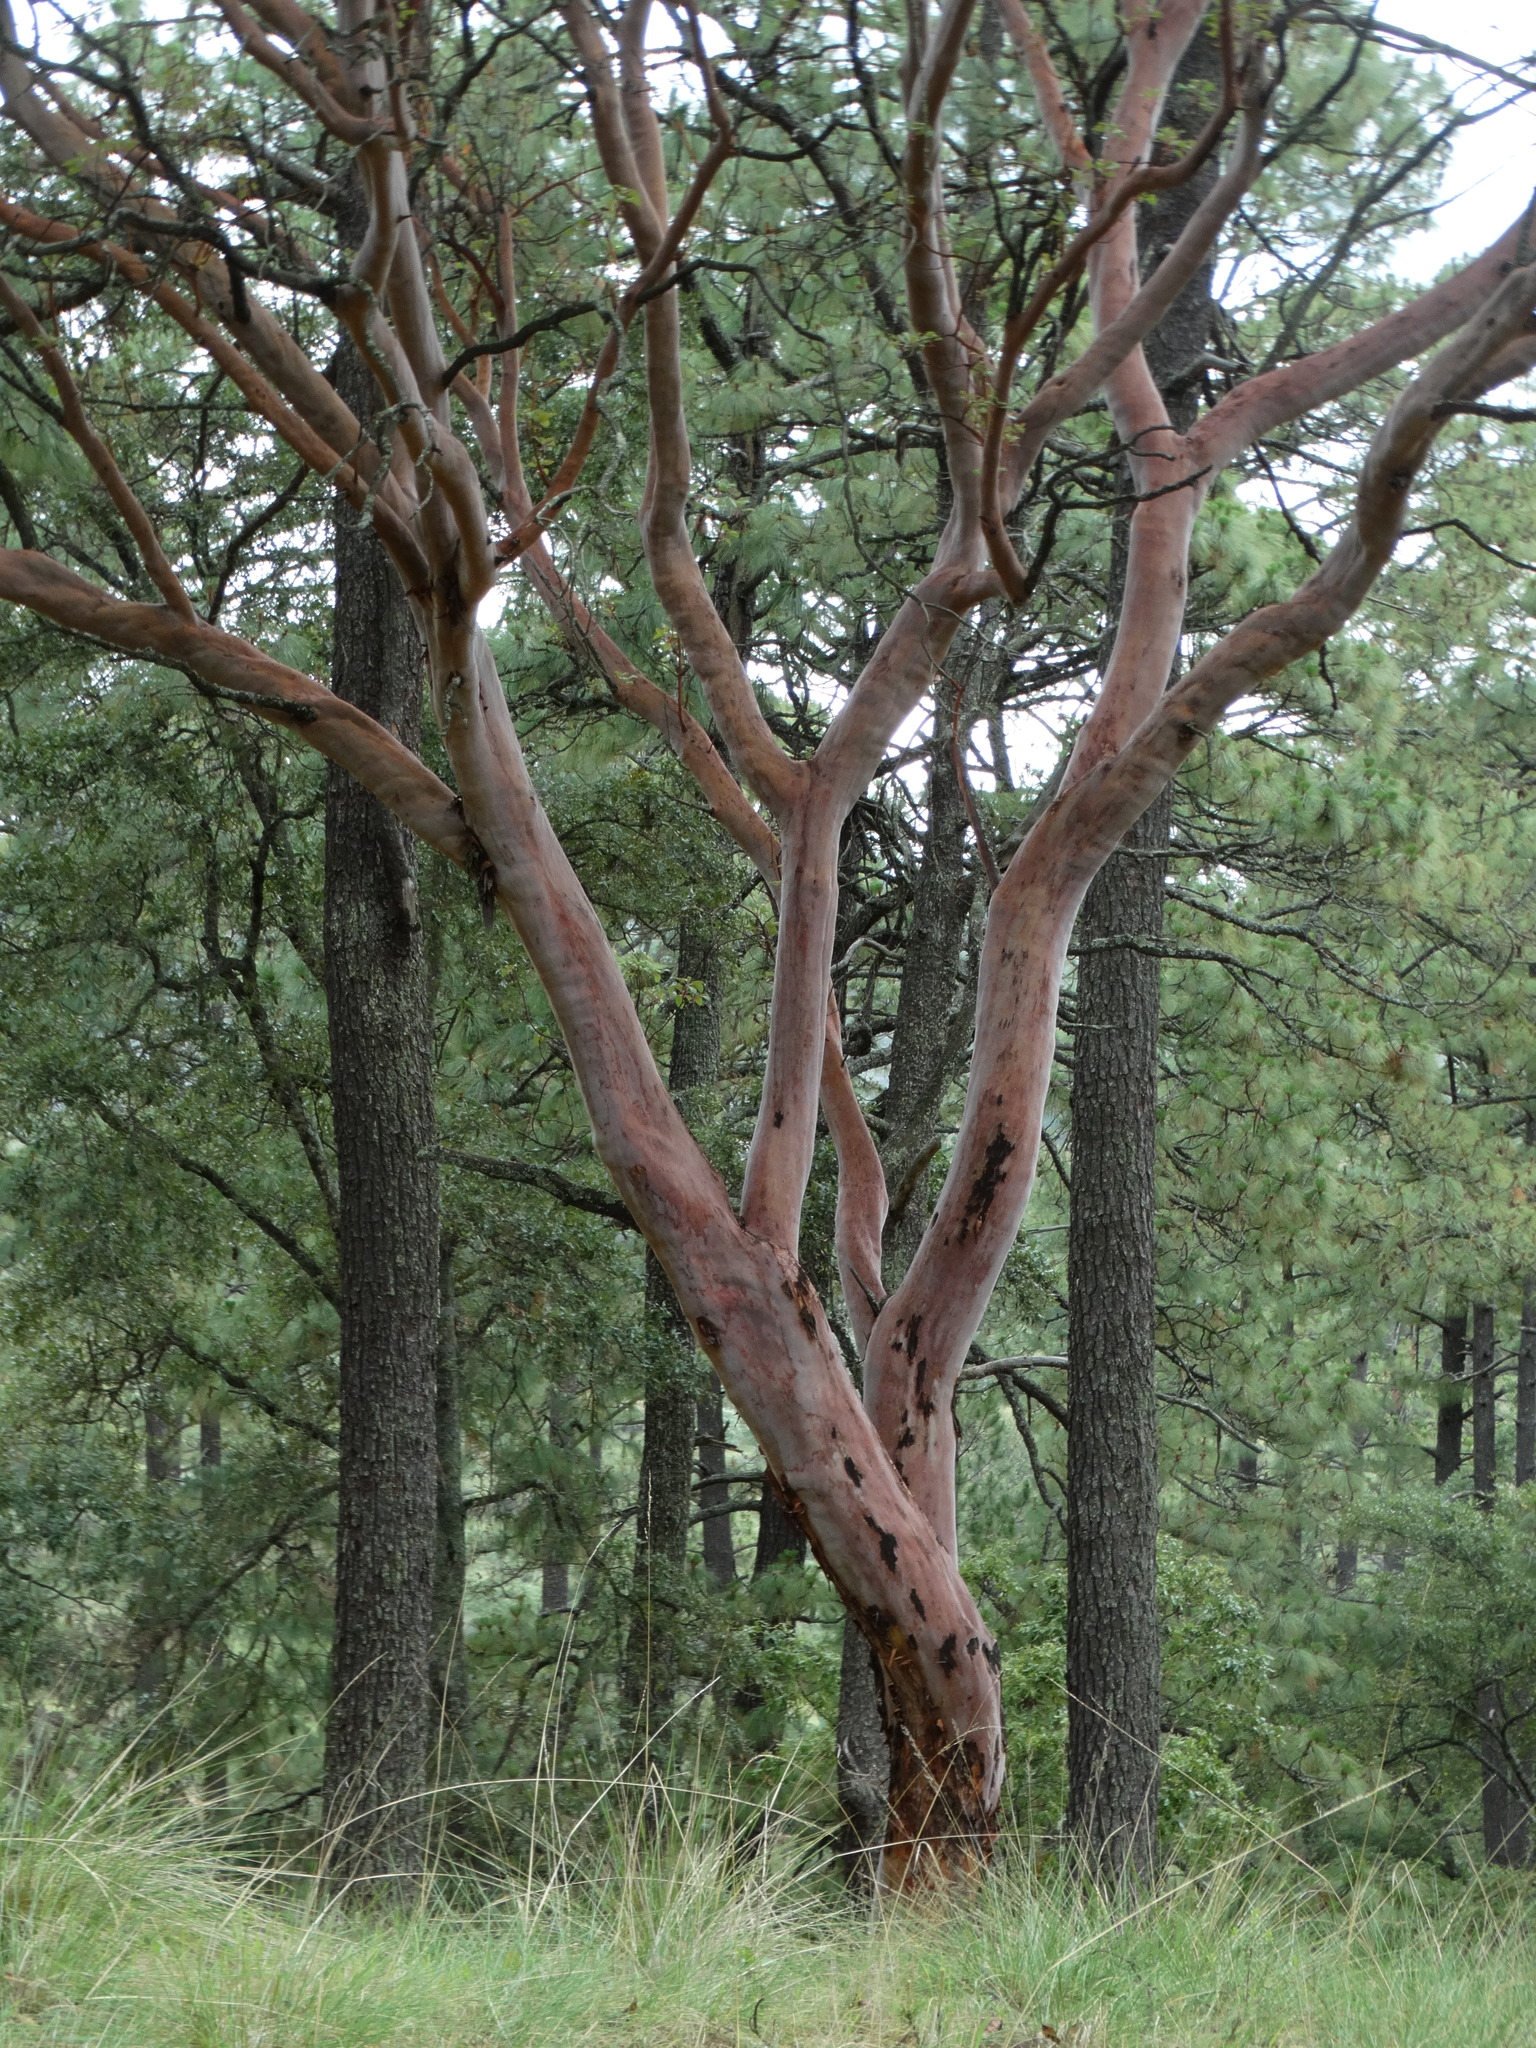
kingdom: Plantae
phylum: Tracheophyta
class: Magnoliopsida
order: Ericales
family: Ericaceae
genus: Arbutus
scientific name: Arbutus xalapensis
